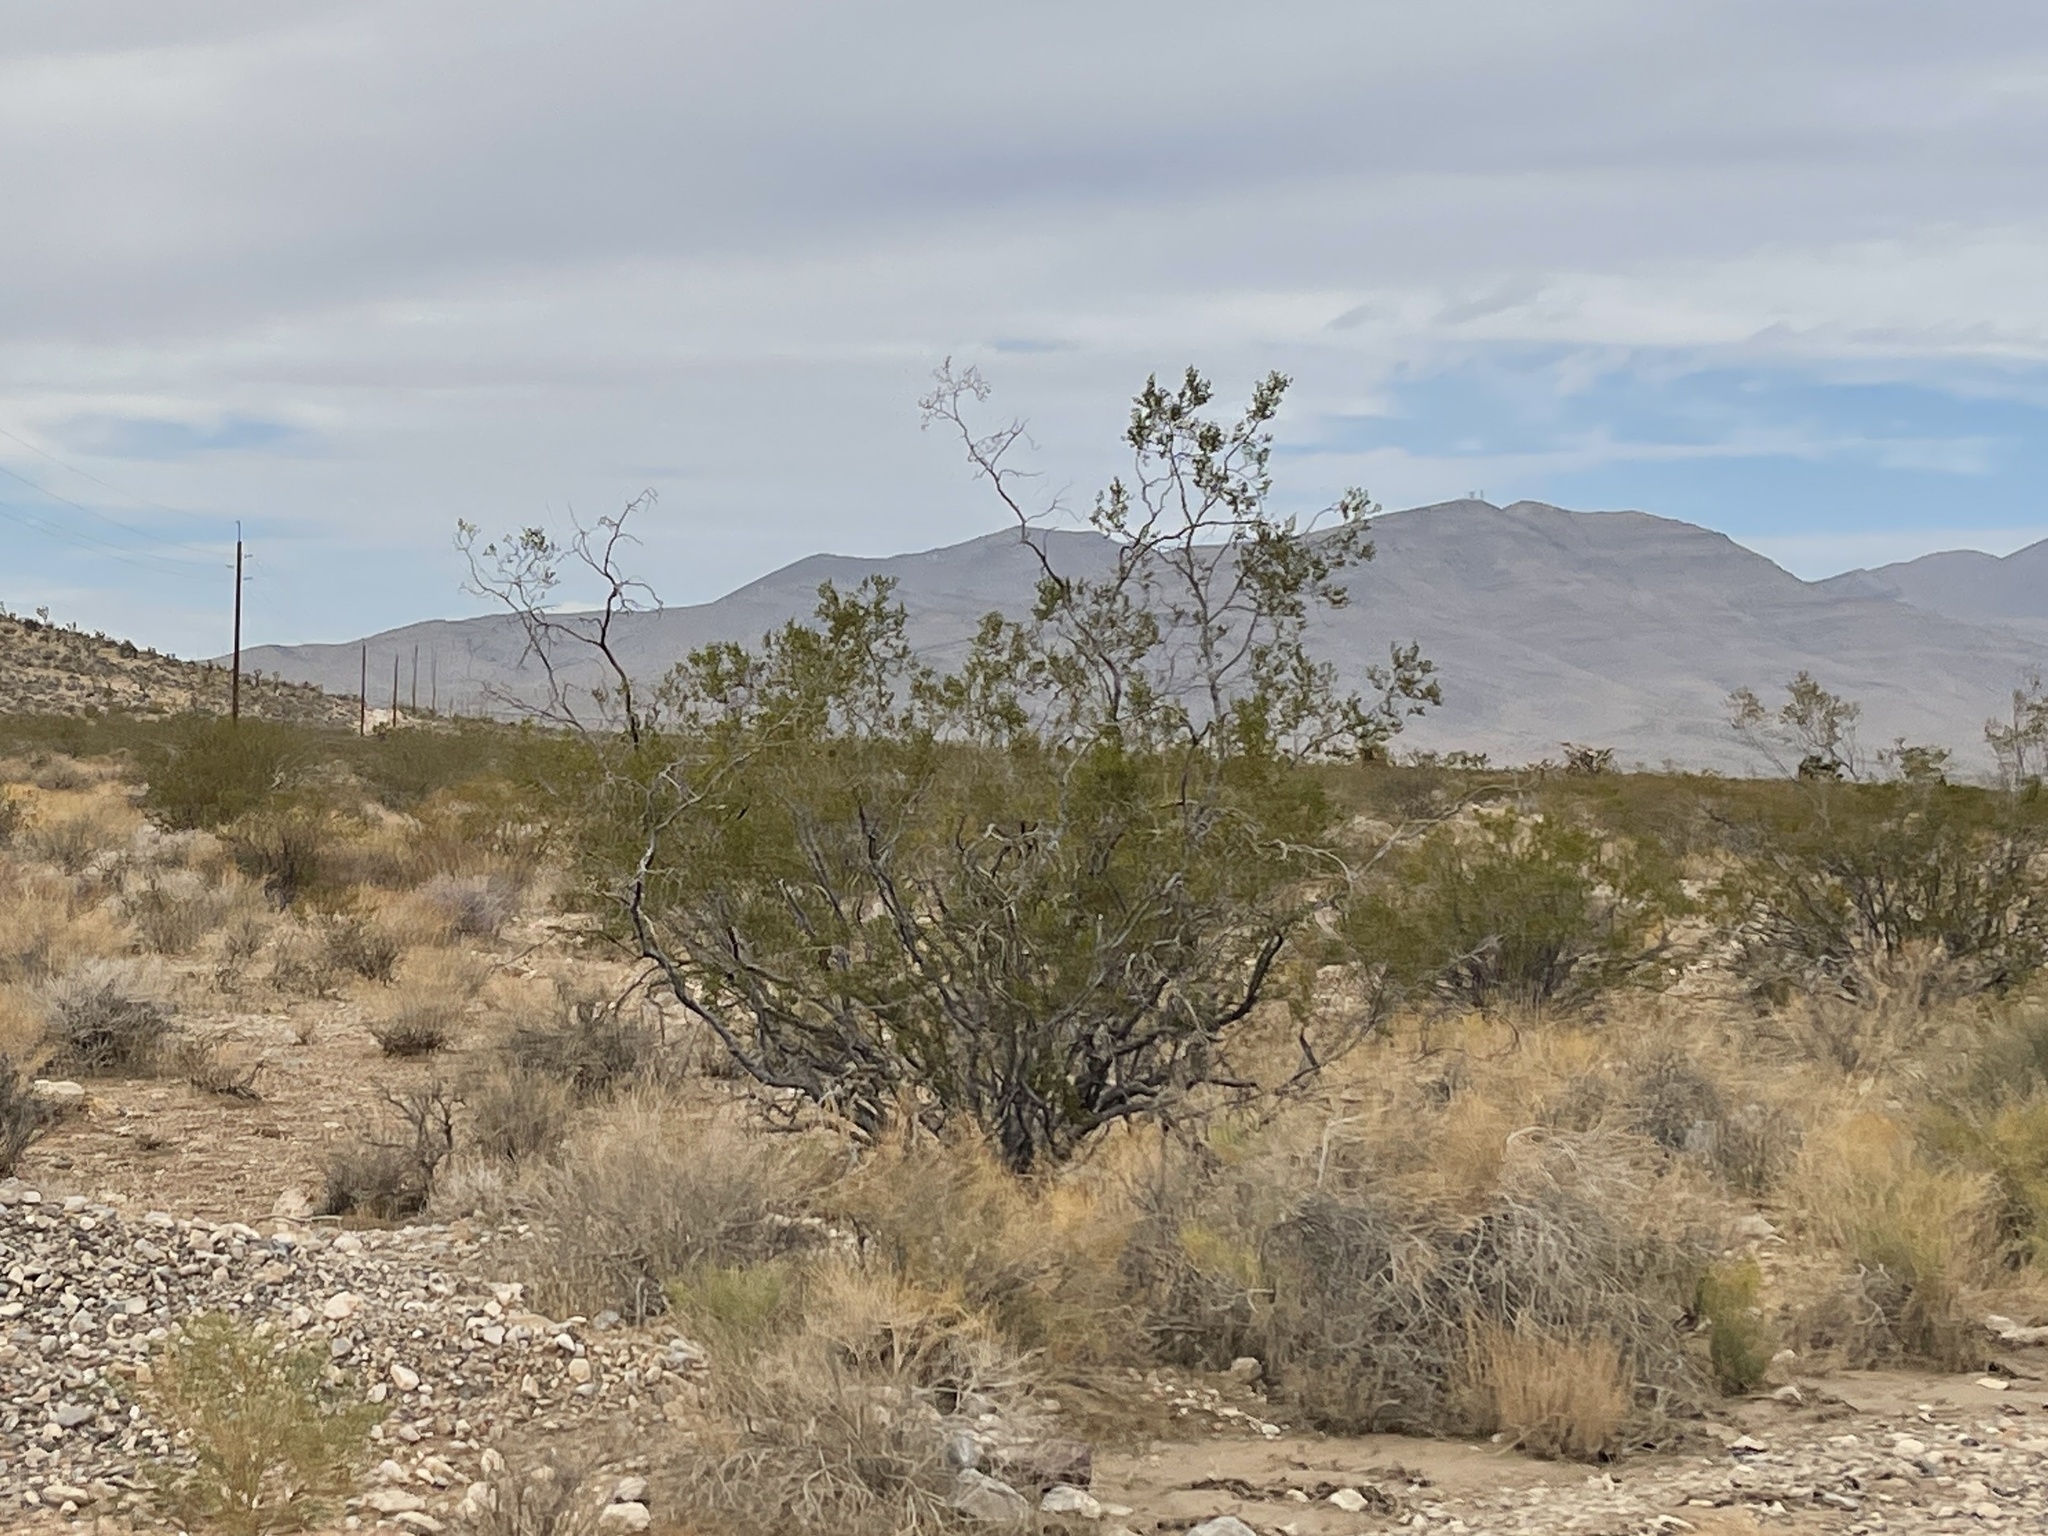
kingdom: Plantae
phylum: Tracheophyta
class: Magnoliopsida
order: Zygophyllales
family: Zygophyllaceae
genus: Larrea
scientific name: Larrea tridentata
